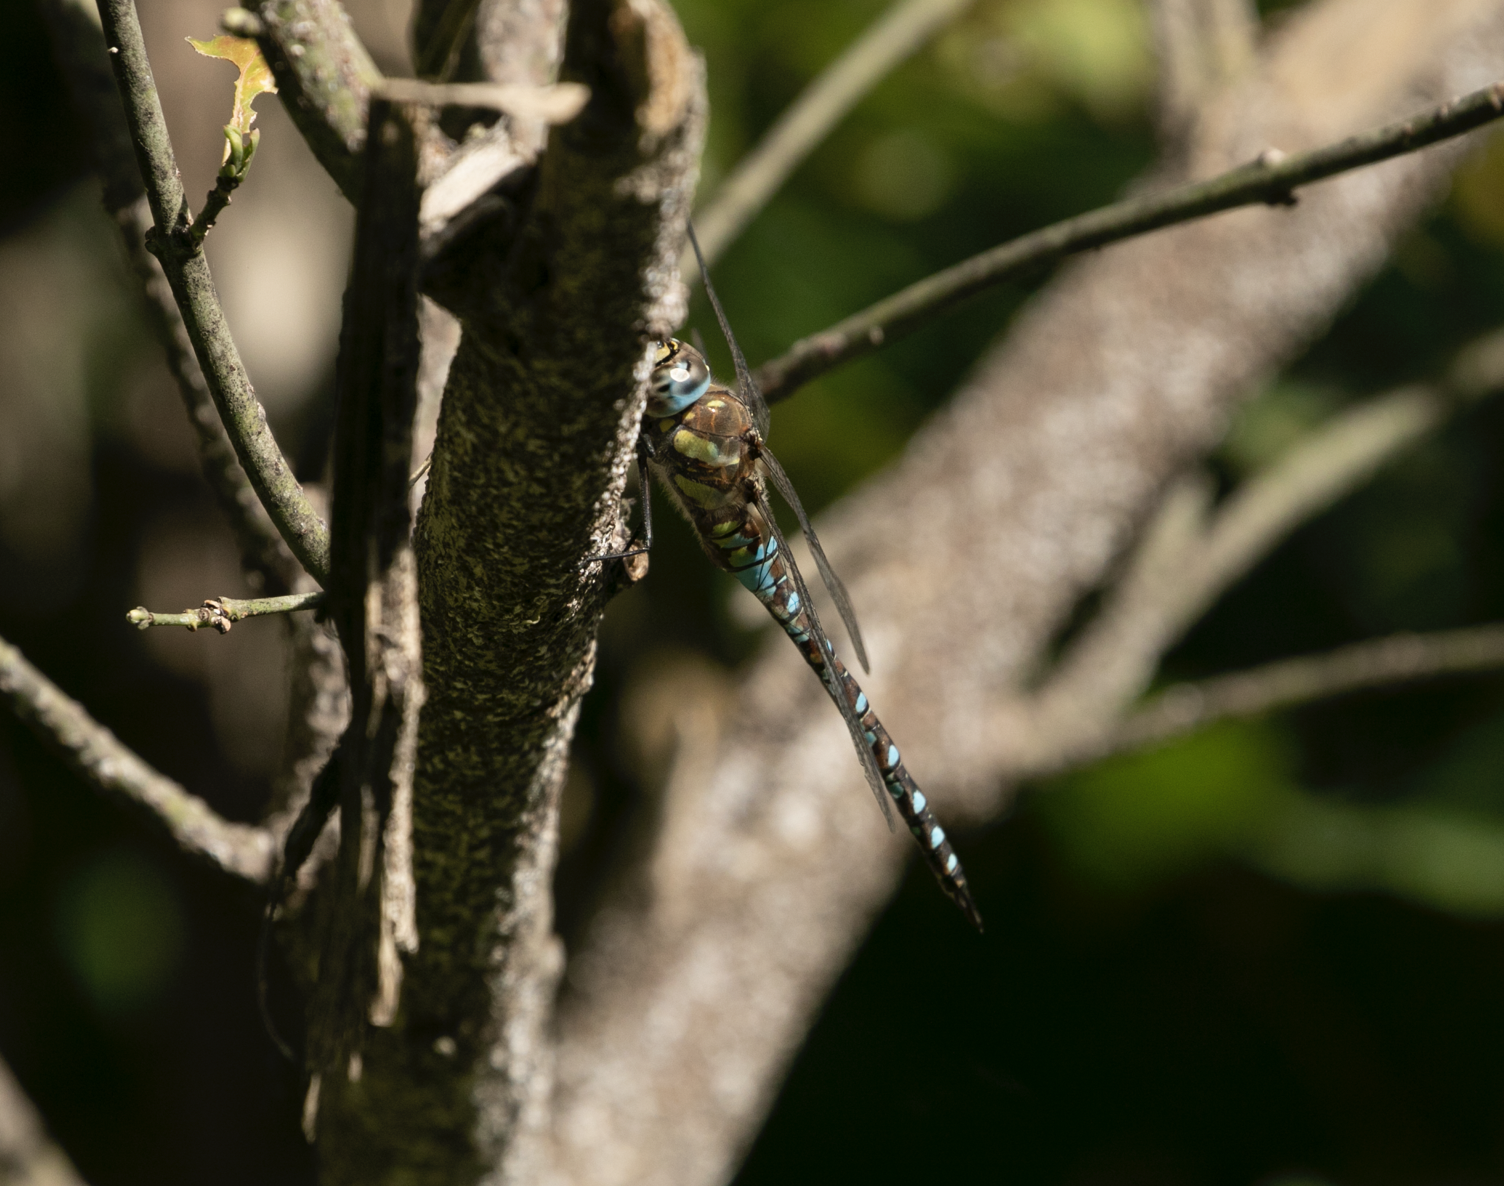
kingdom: Animalia
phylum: Arthropoda
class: Insecta
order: Odonata
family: Aeshnidae
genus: Aeshna
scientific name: Aeshna mixta
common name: Migrant hawker
